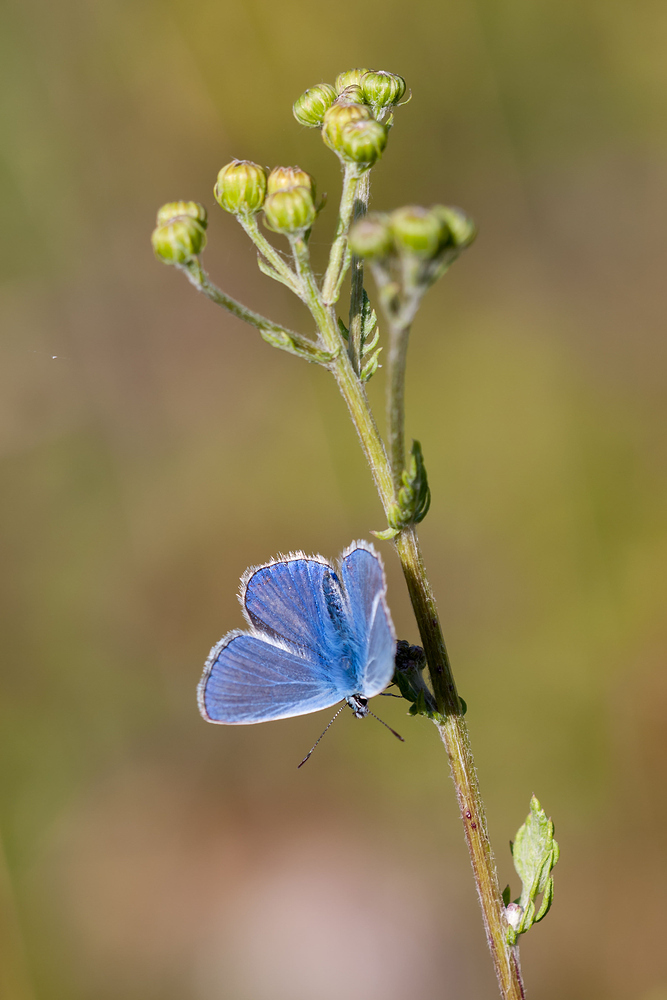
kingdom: Animalia
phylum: Arthropoda
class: Insecta
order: Lepidoptera
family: Lycaenidae
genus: Polyommatus
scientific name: Polyommatus icarus
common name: Common blue
